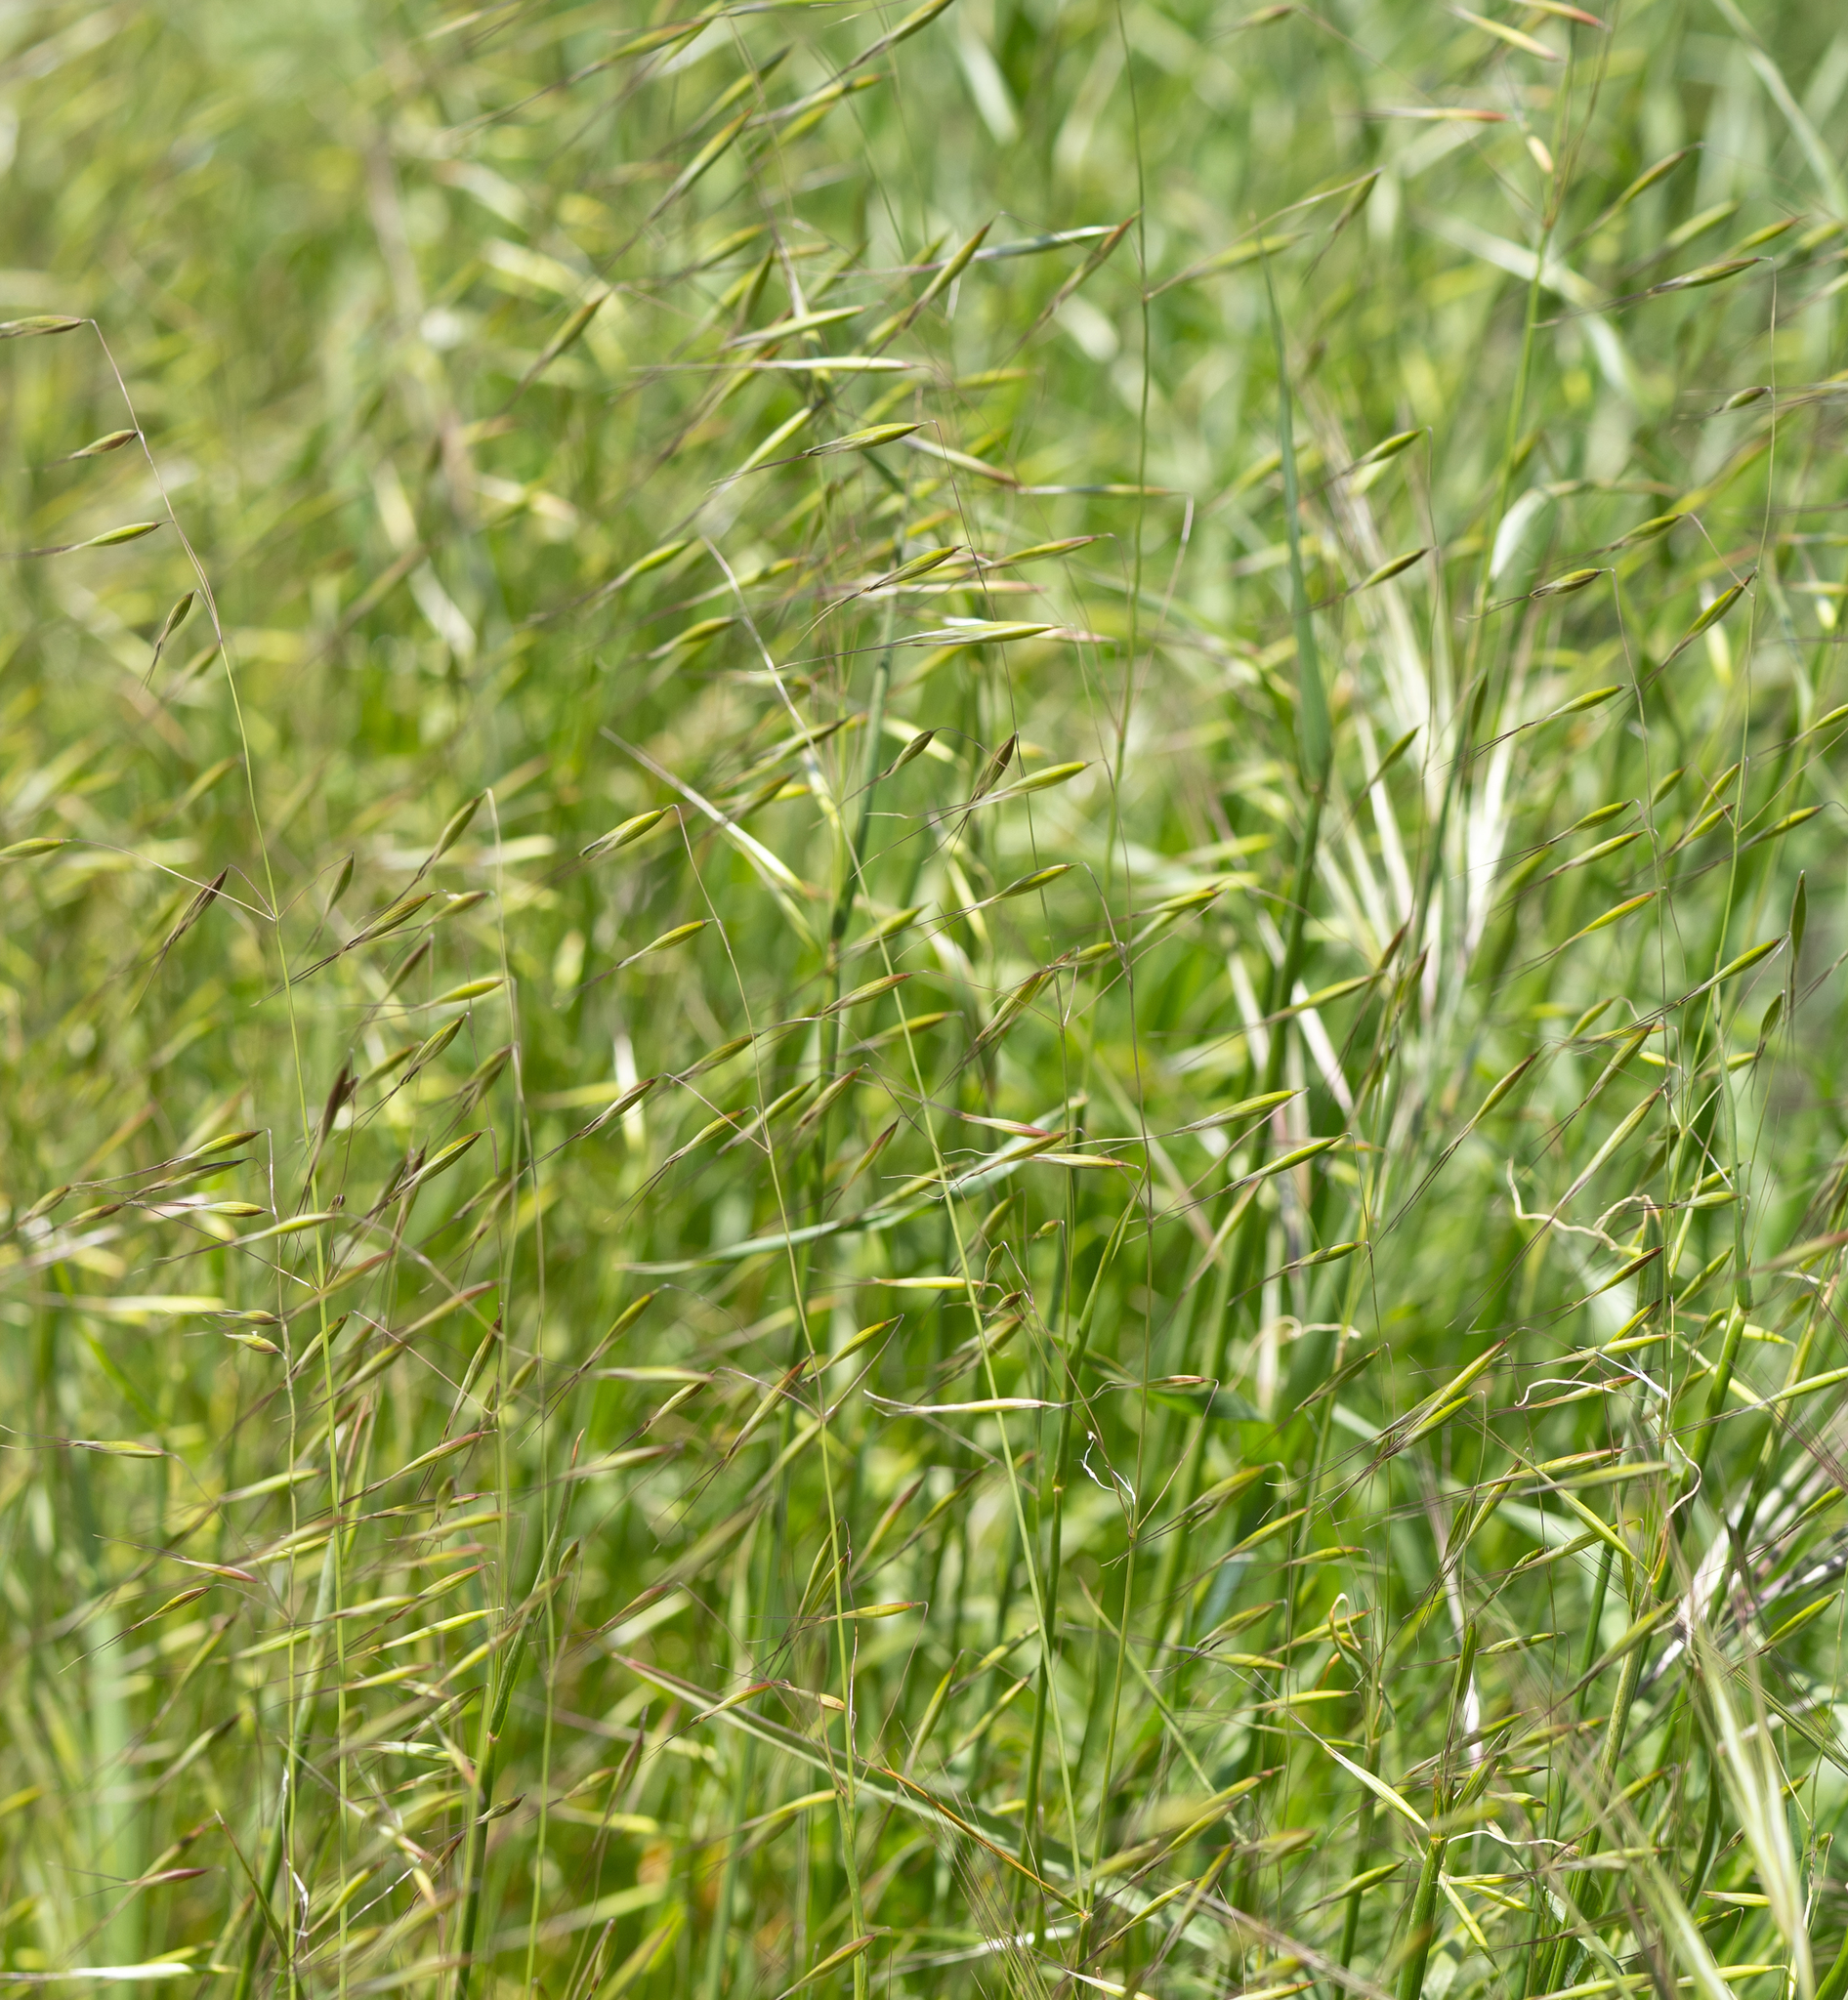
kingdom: Plantae
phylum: Tracheophyta
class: Liliopsida
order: Poales
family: Poaceae
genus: Avena
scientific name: Avena barbata
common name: Slender oat
